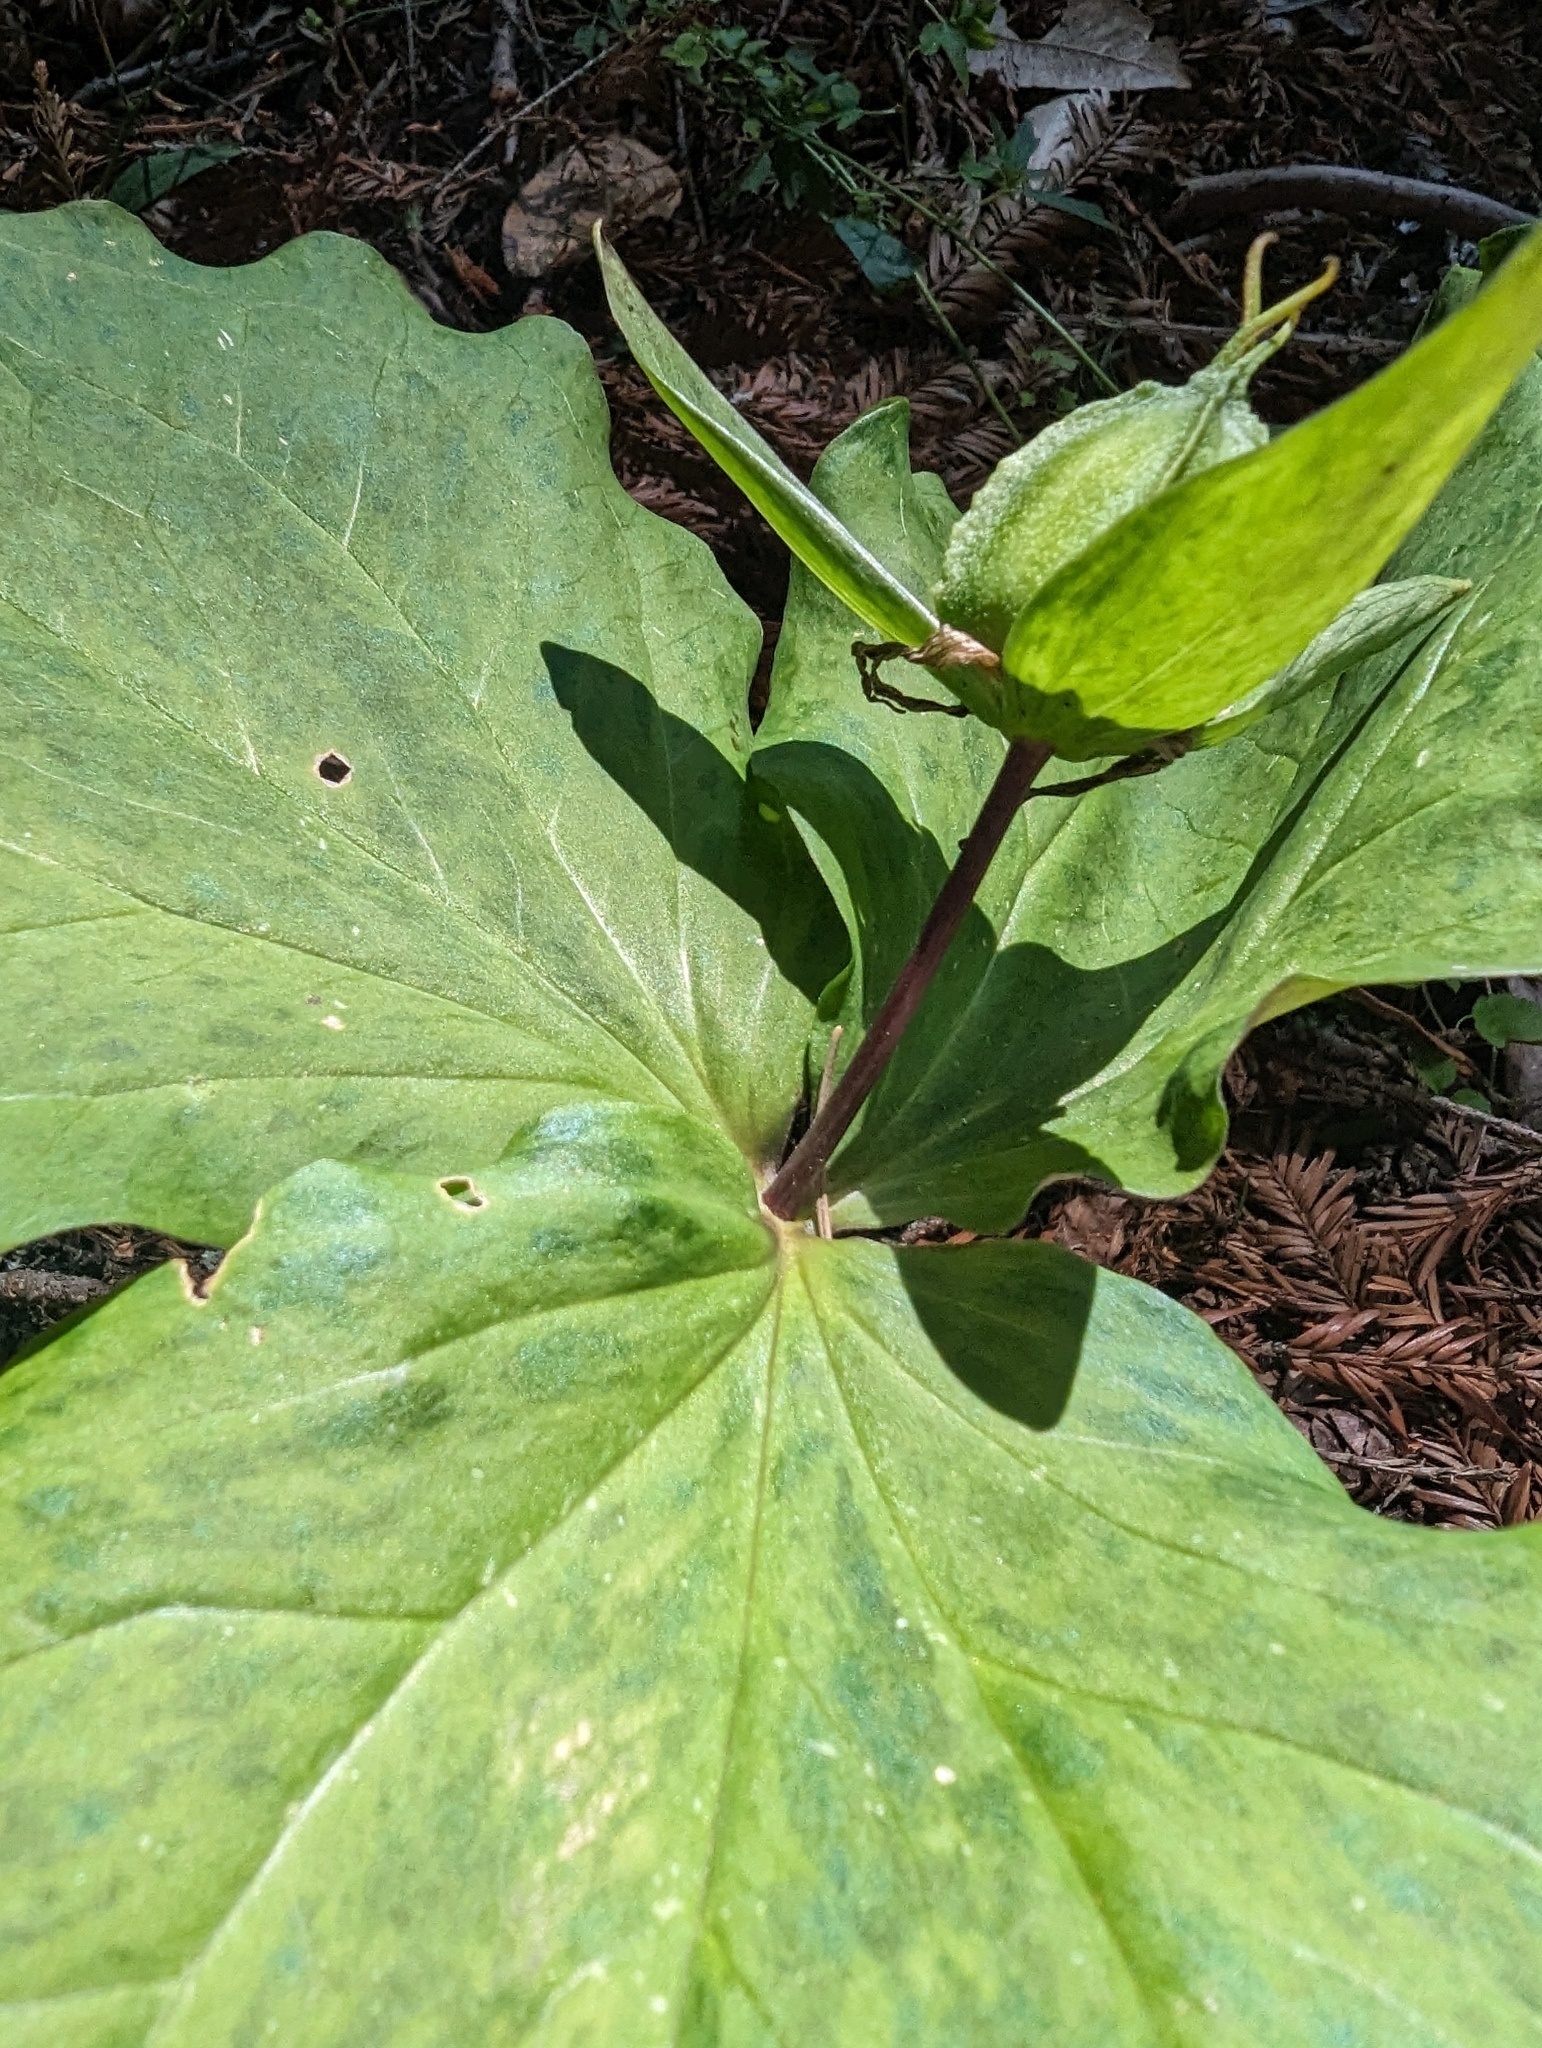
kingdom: Plantae
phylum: Tracheophyta
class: Liliopsida
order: Liliales
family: Melanthiaceae
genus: Trillium
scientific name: Trillium ovatum
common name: Pacific trillium
